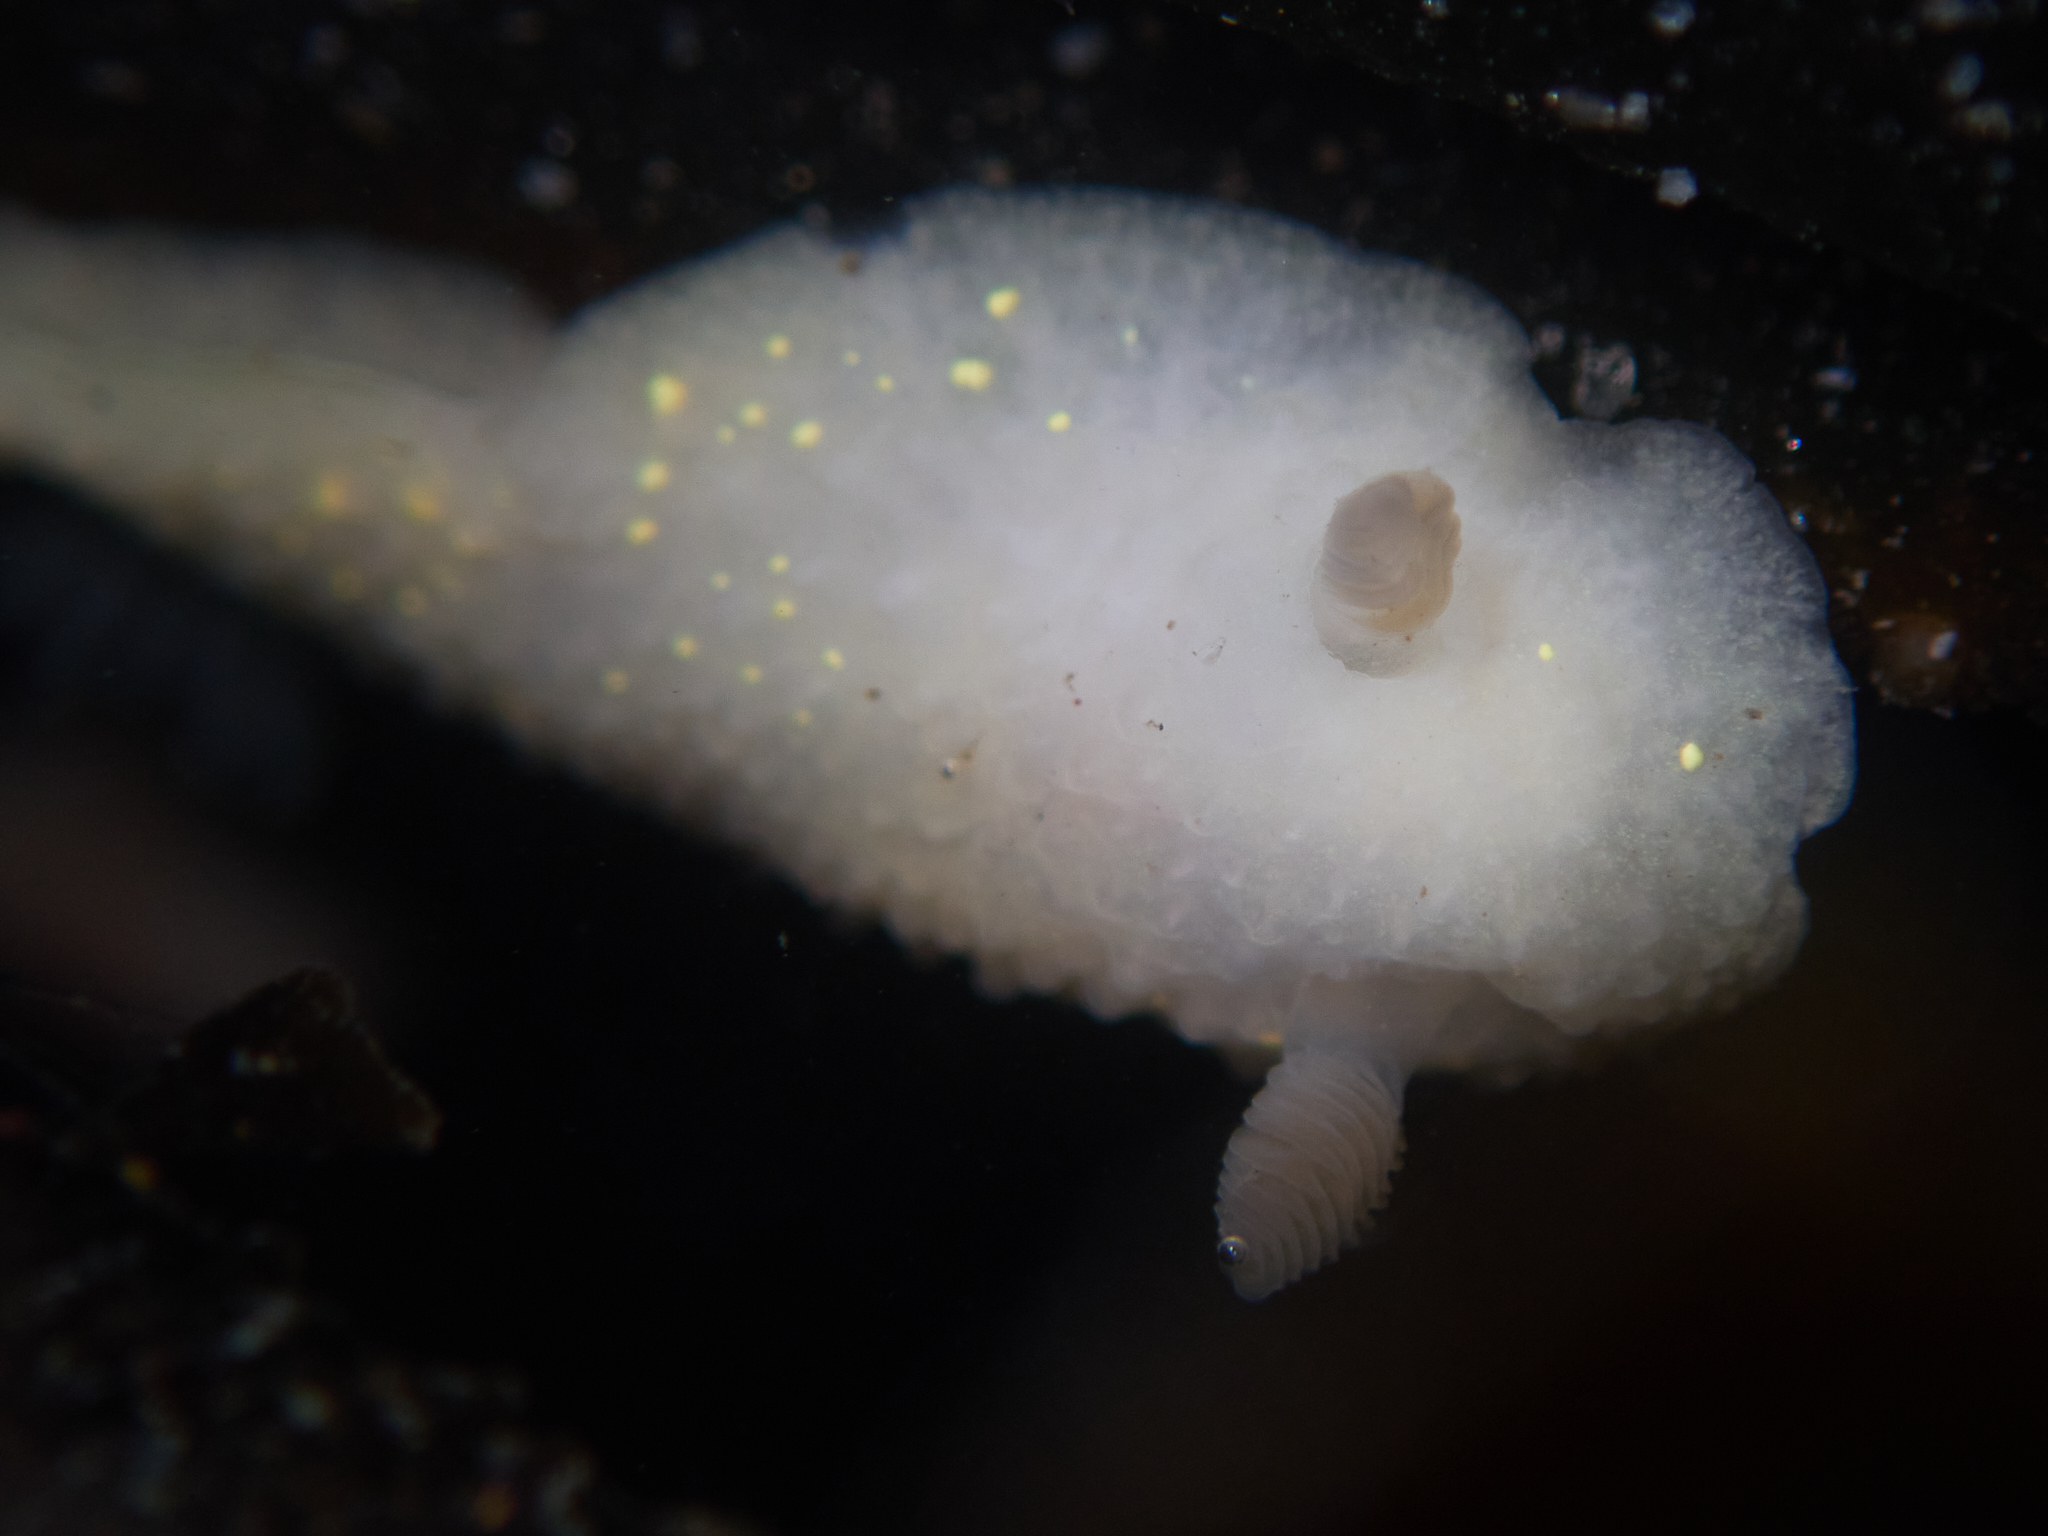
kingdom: Animalia
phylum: Mollusca
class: Gastropoda
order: Nudibranchia
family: Cadlinidae
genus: Cadlina
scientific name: Cadlina modesta
